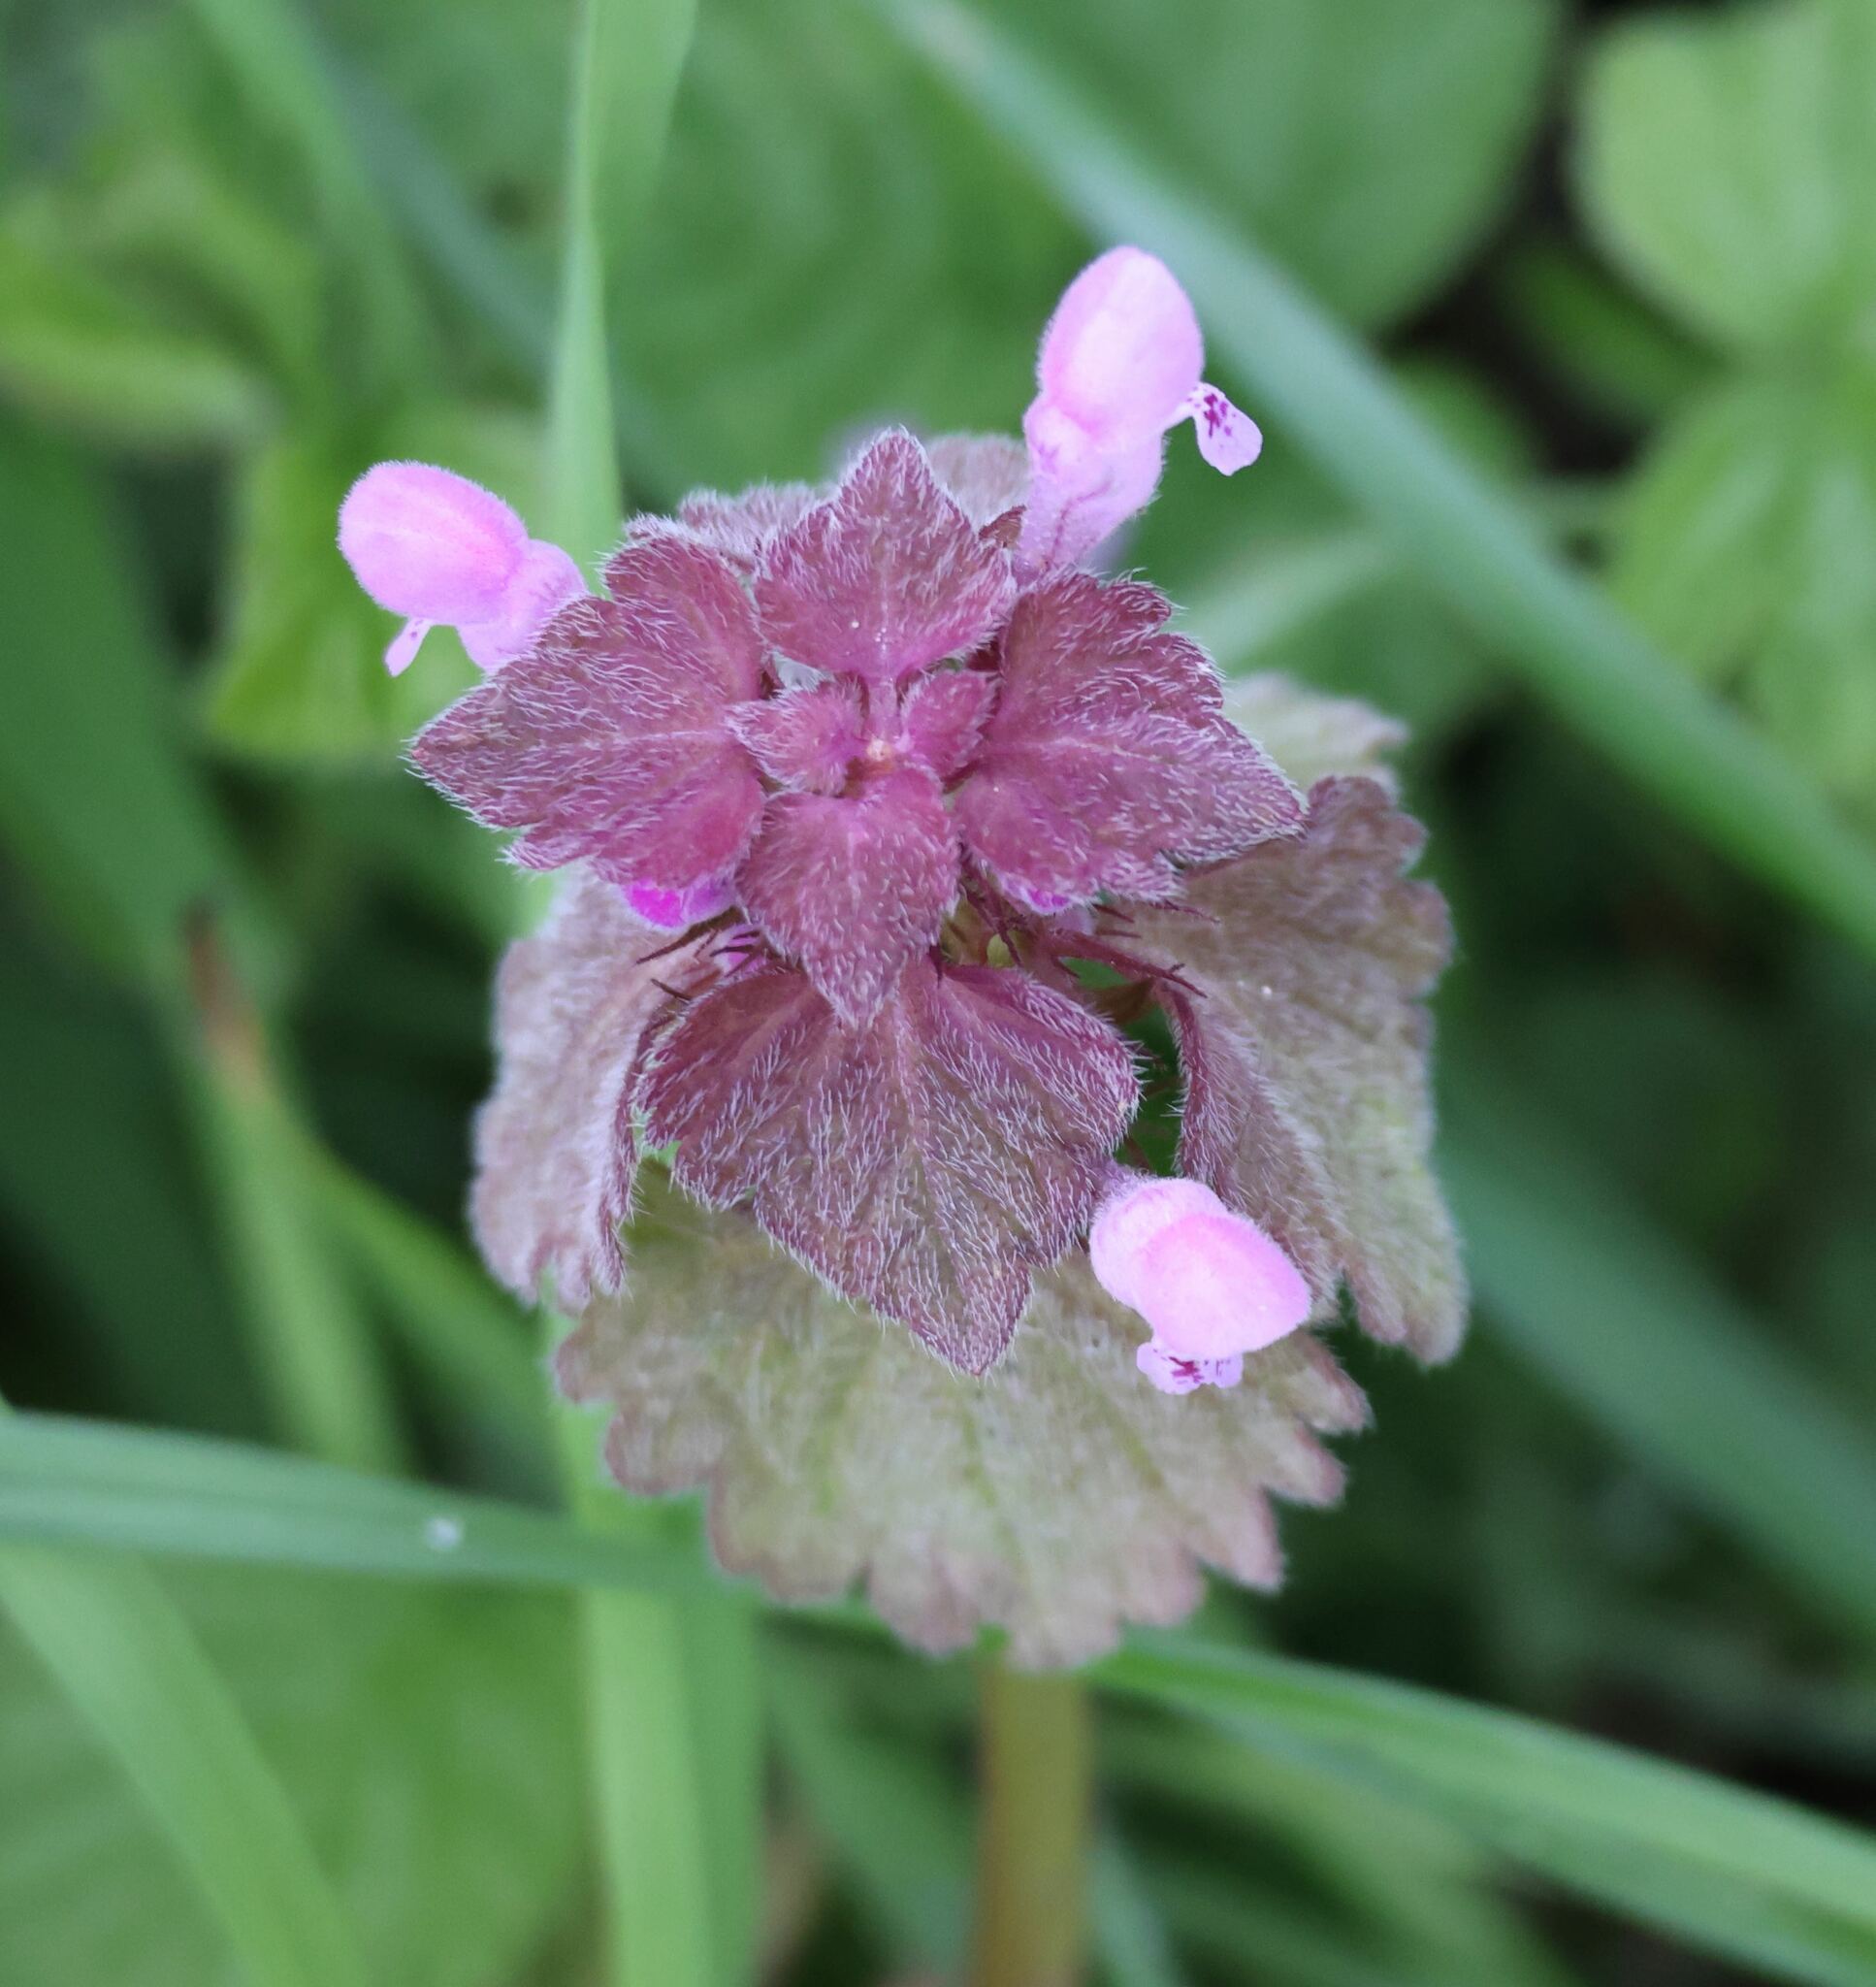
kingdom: Plantae
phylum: Tracheophyta
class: Magnoliopsida
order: Lamiales
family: Lamiaceae
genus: Lamium
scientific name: Lamium purpureum
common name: Red dead-nettle
